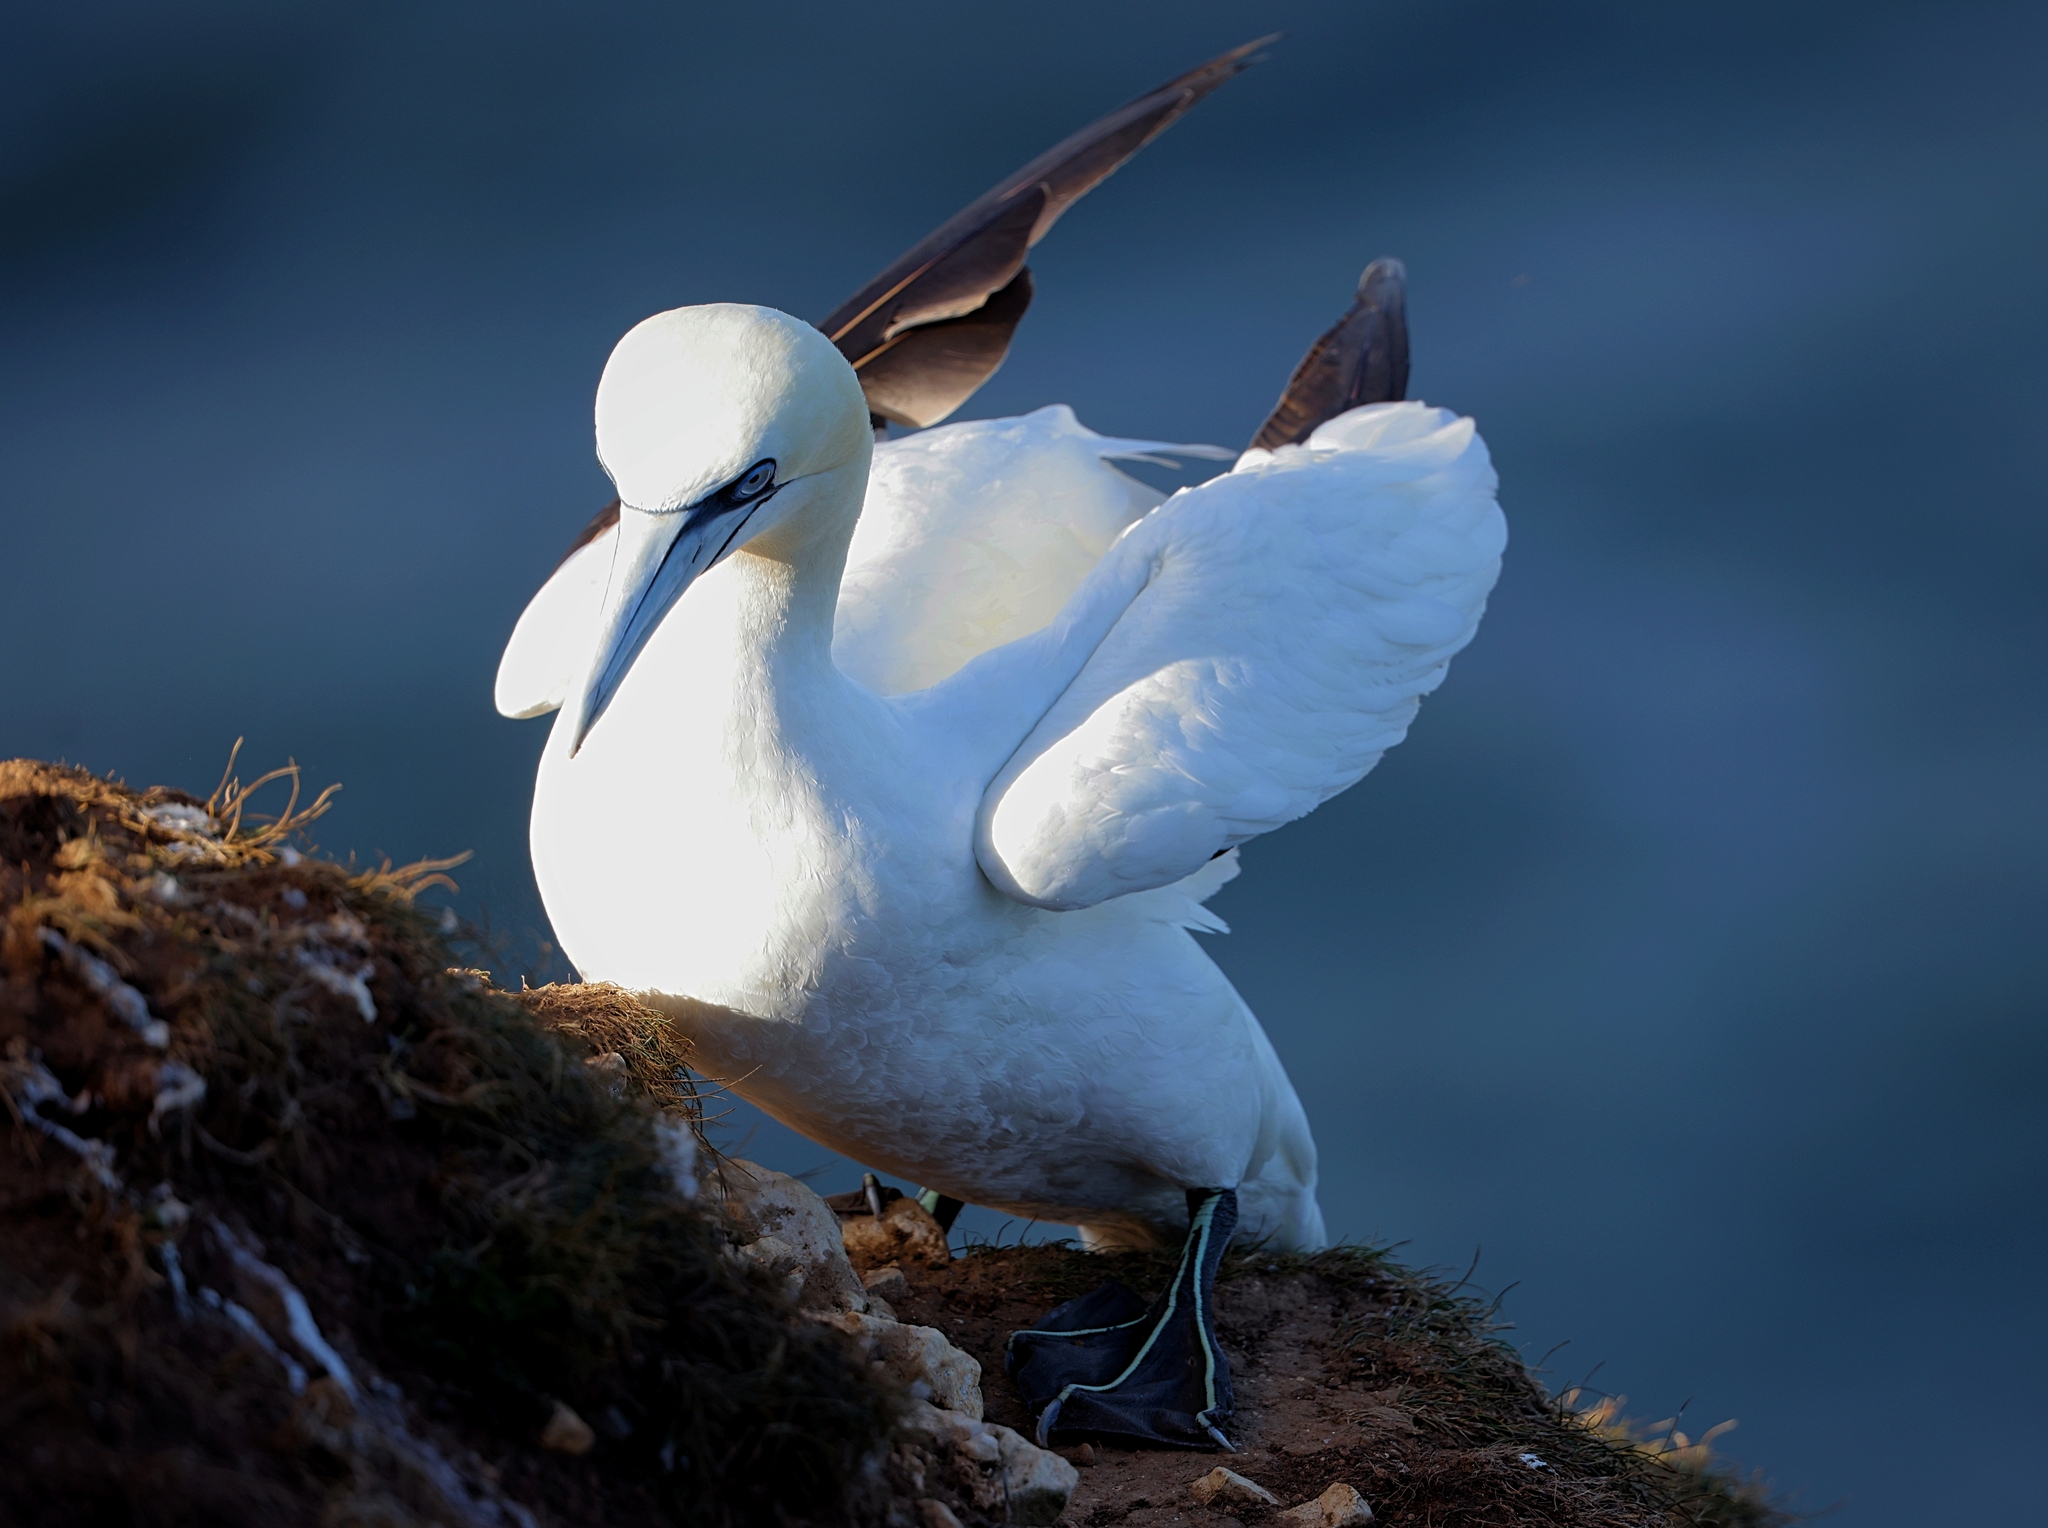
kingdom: Animalia
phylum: Chordata
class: Aves
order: Suliformes
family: Sulidae
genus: Morus
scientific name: Morus bassanus
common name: Northern gannet
